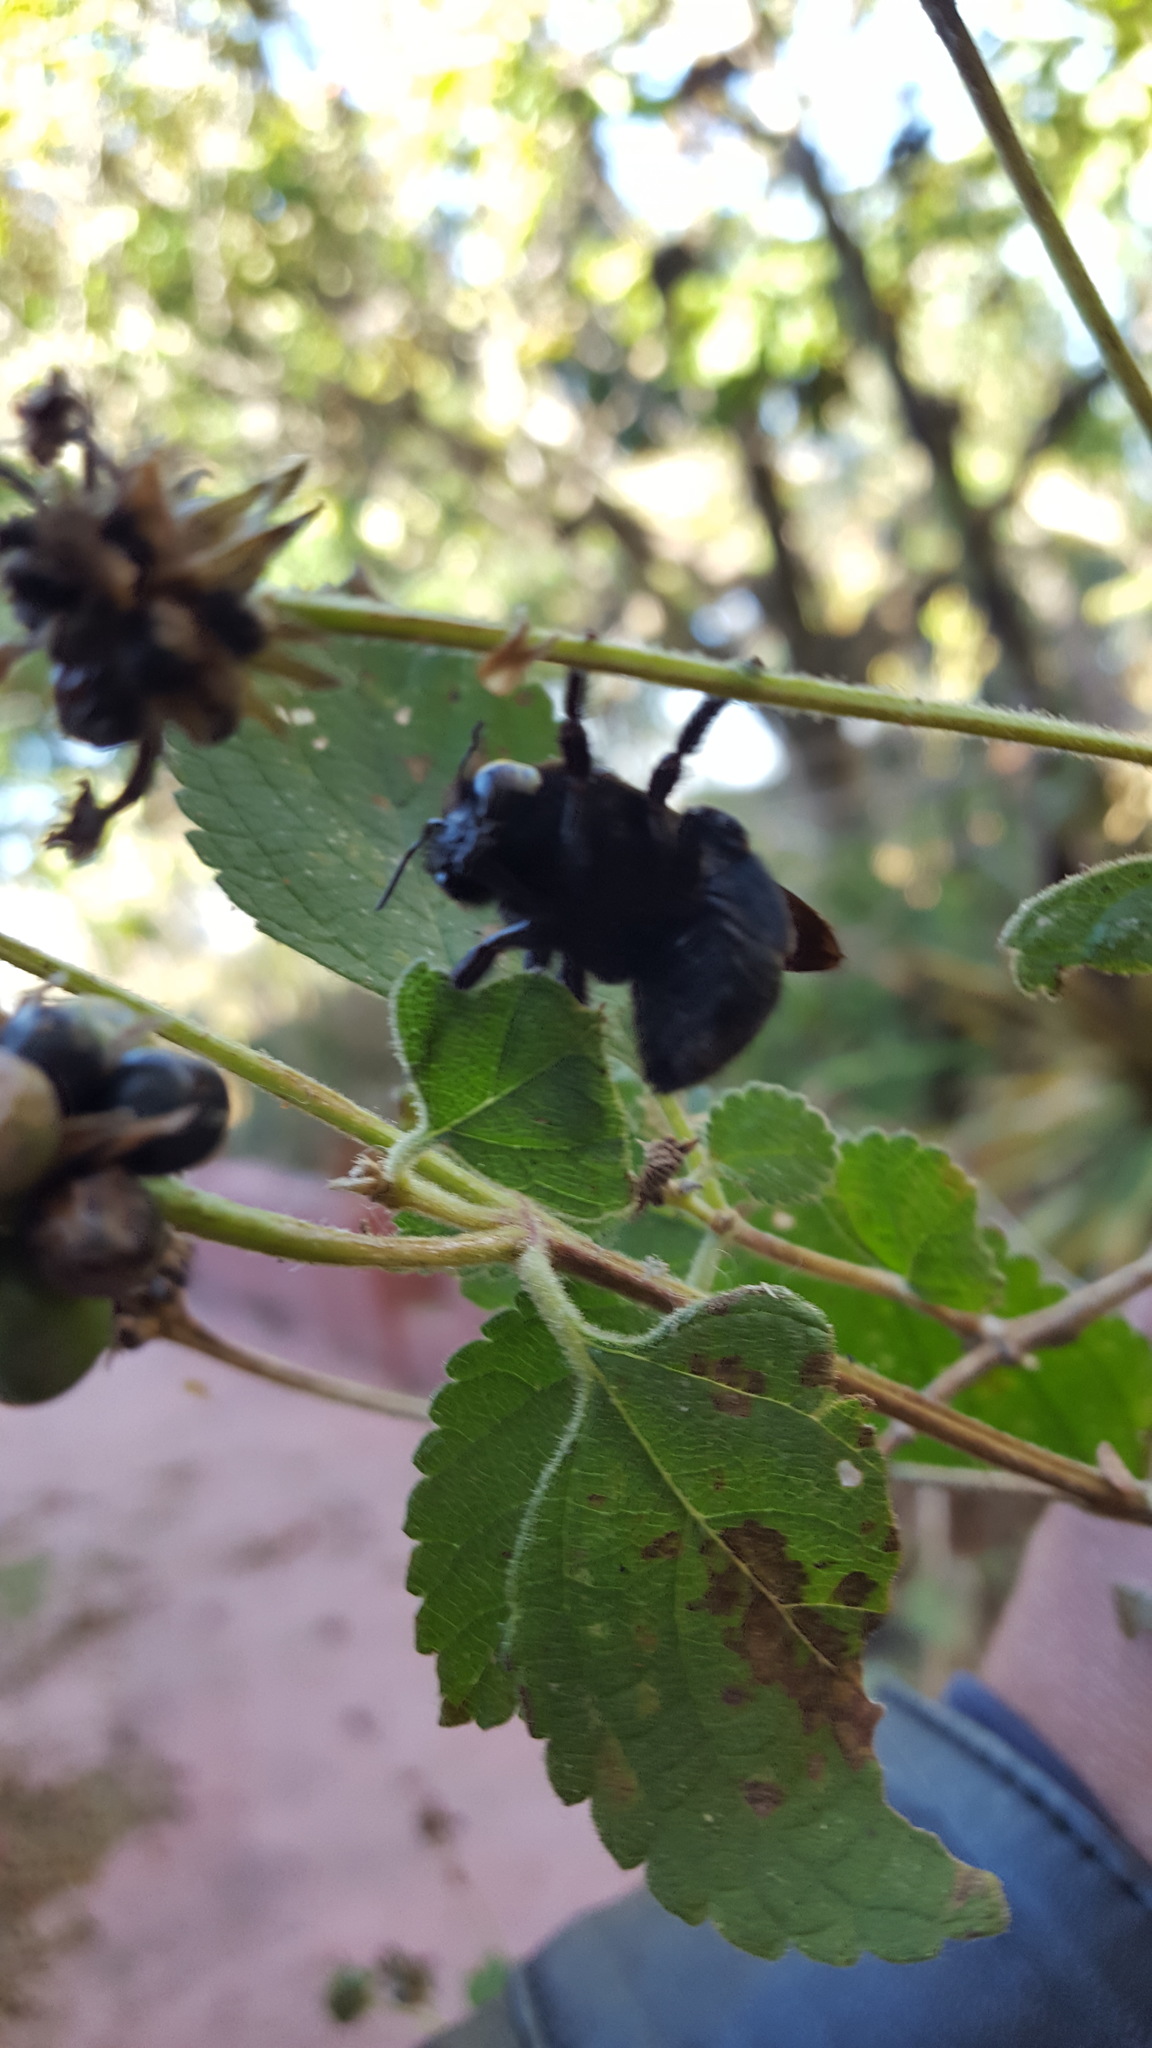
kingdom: Animalia
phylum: Arthropoda
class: Insecta
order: Hymenoptera
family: Apidae
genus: Xylocopa
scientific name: Xylocopa guatemalensis
